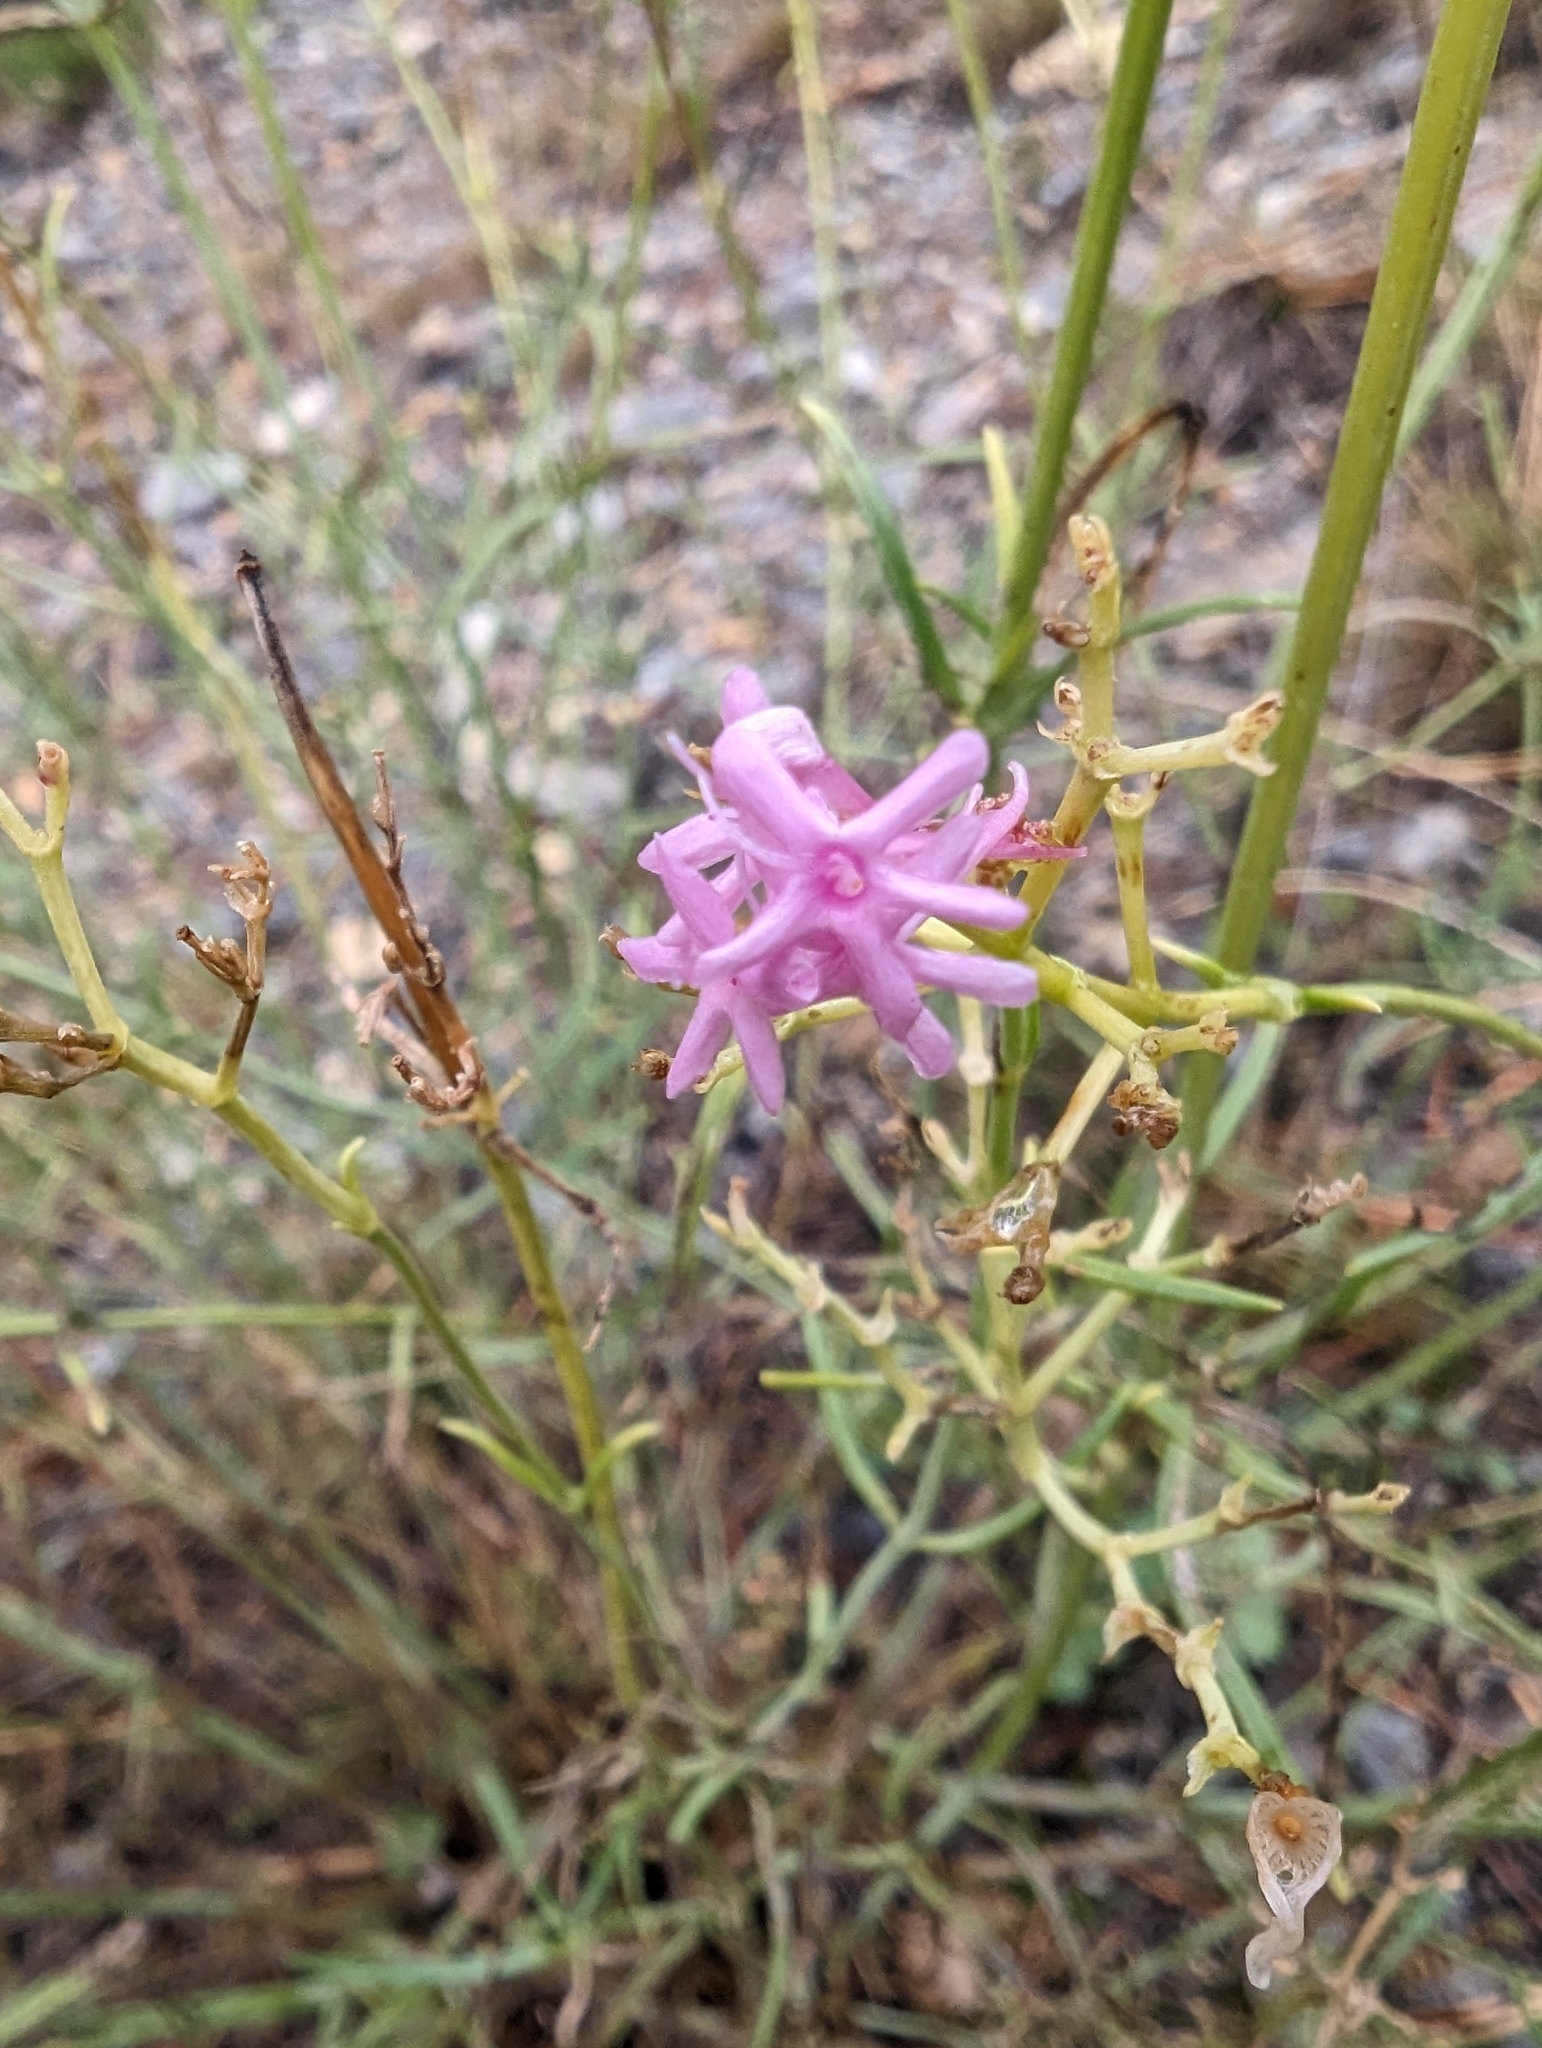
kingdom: Plantae
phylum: Tracheophyta
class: Magnoliopsida
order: Dipsacales
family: Caprifoliaceae
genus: Centranthus
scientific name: Centranthus angustifolius
